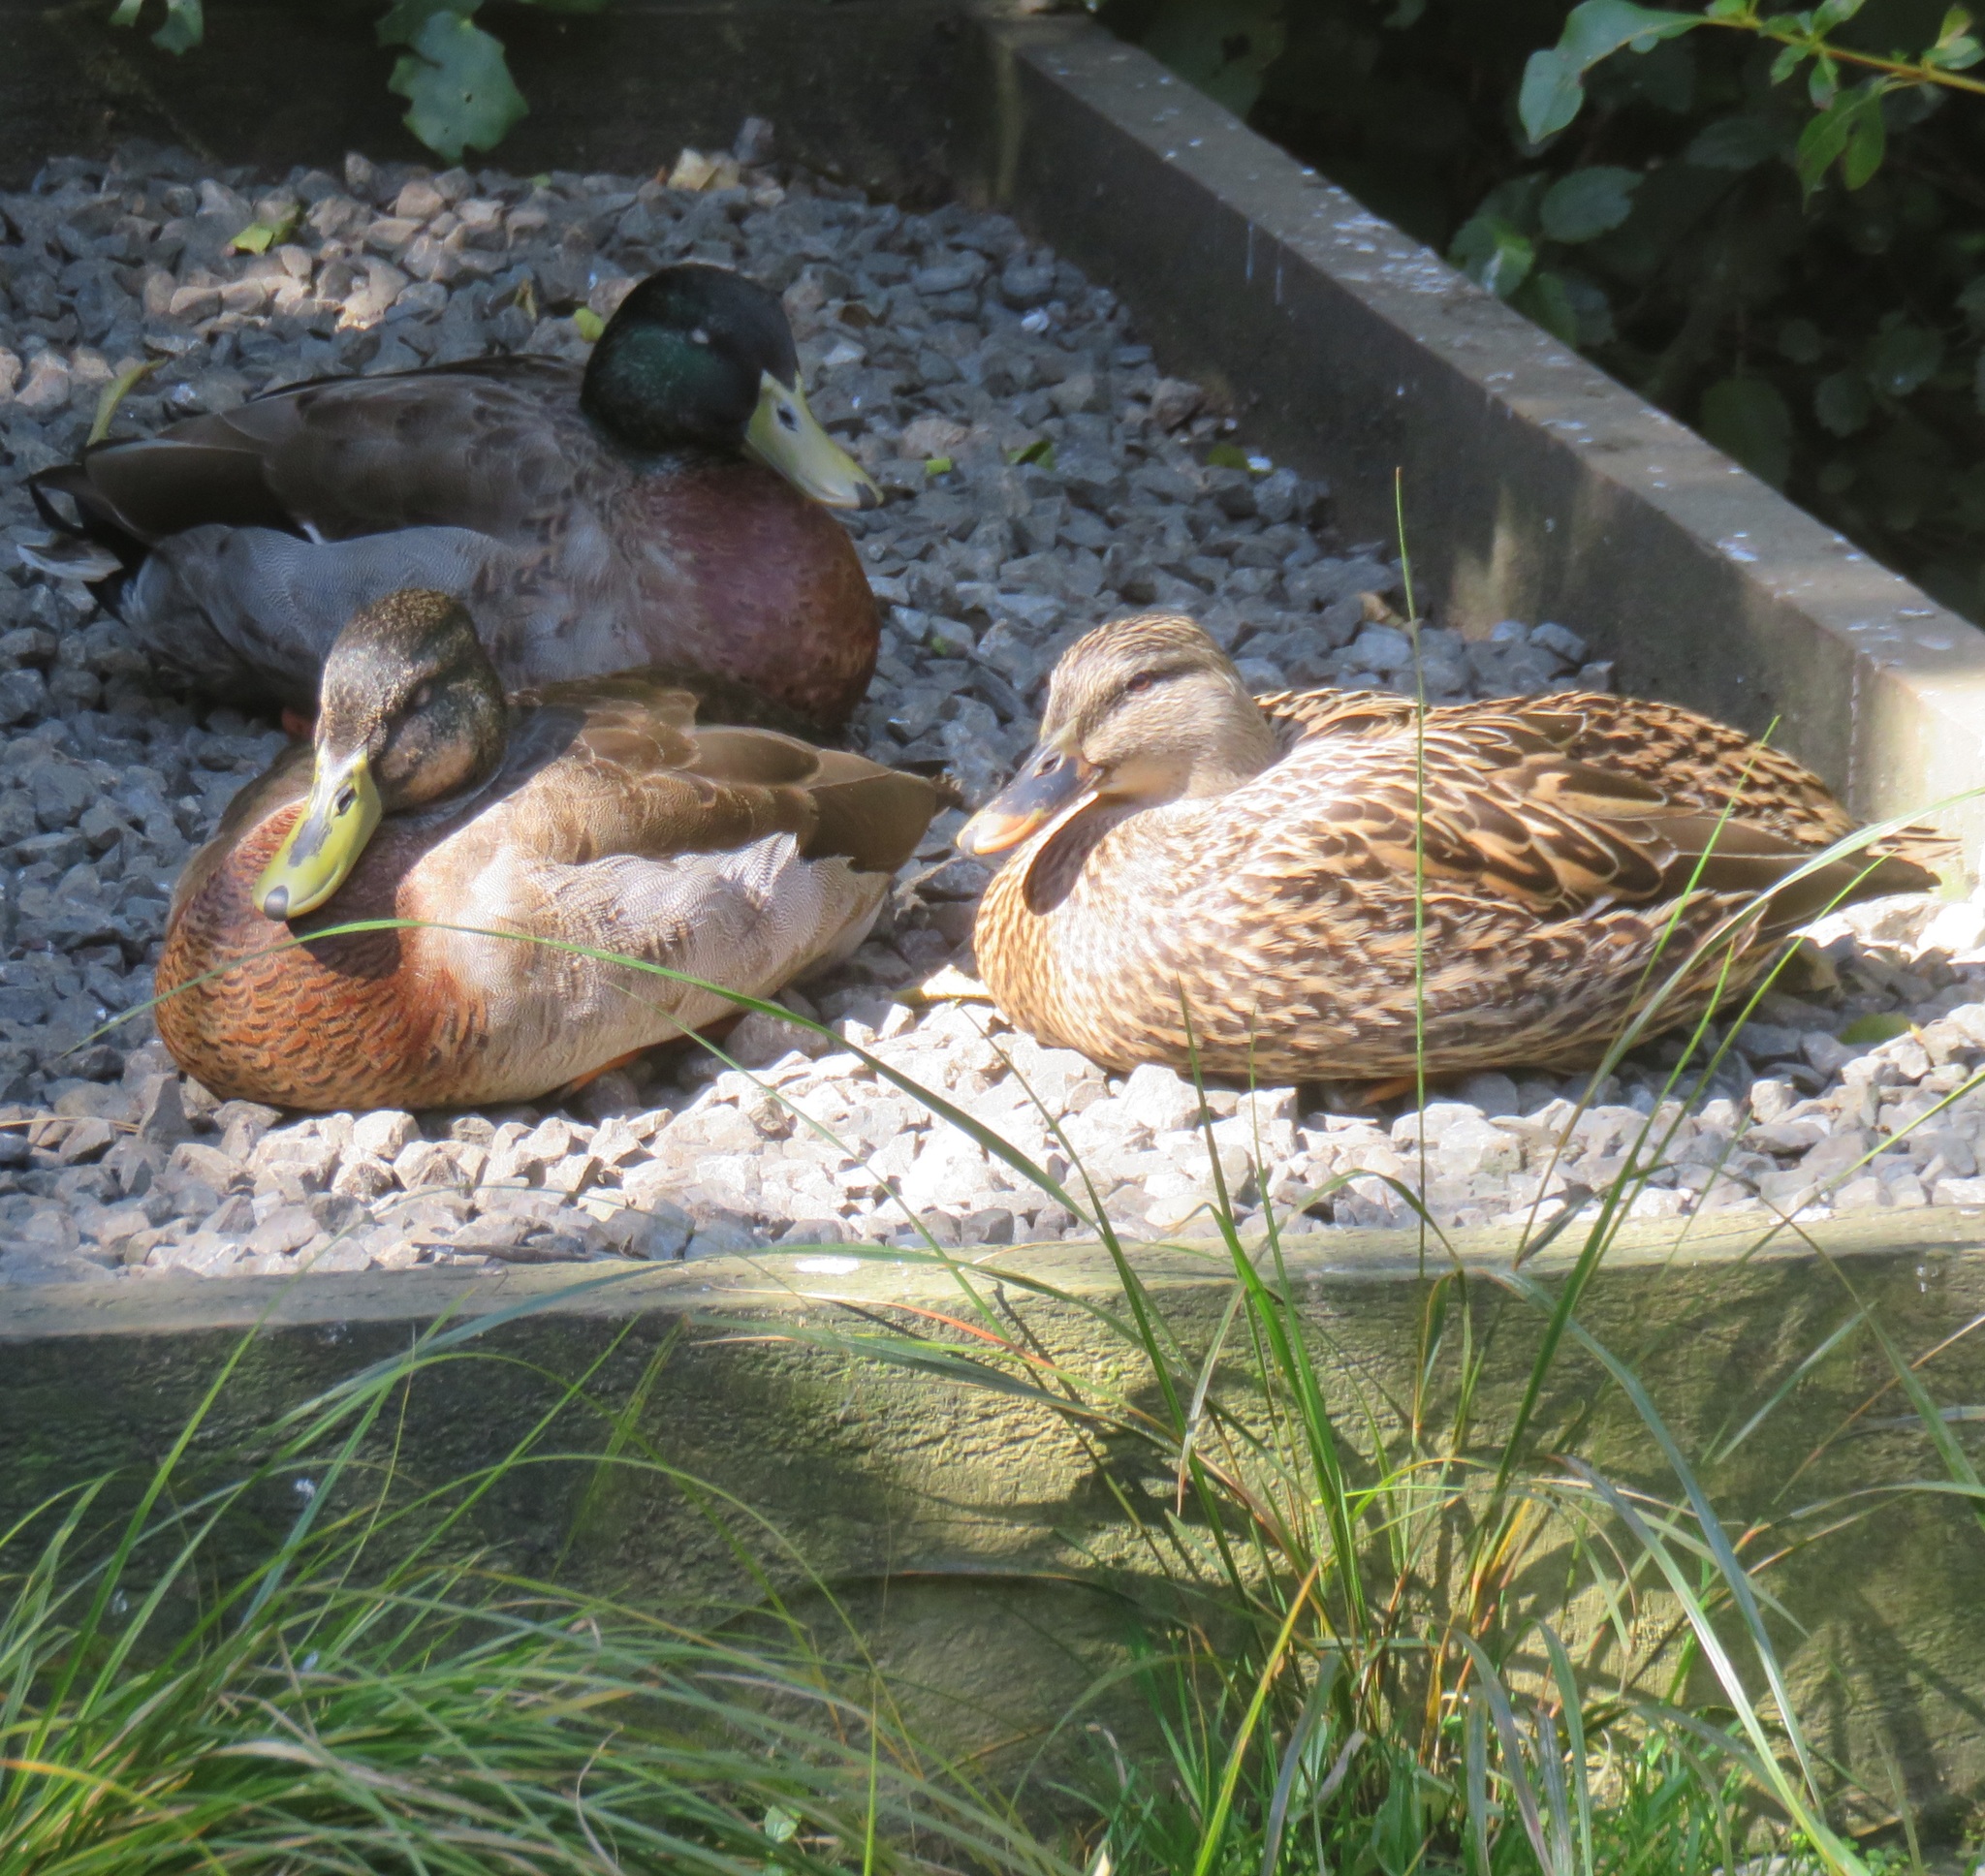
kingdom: Animalia
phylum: Chordata
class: Aves
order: Anseriformes
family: Anatidae
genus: Anas
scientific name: Anas platyrhynchos
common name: Mallard
